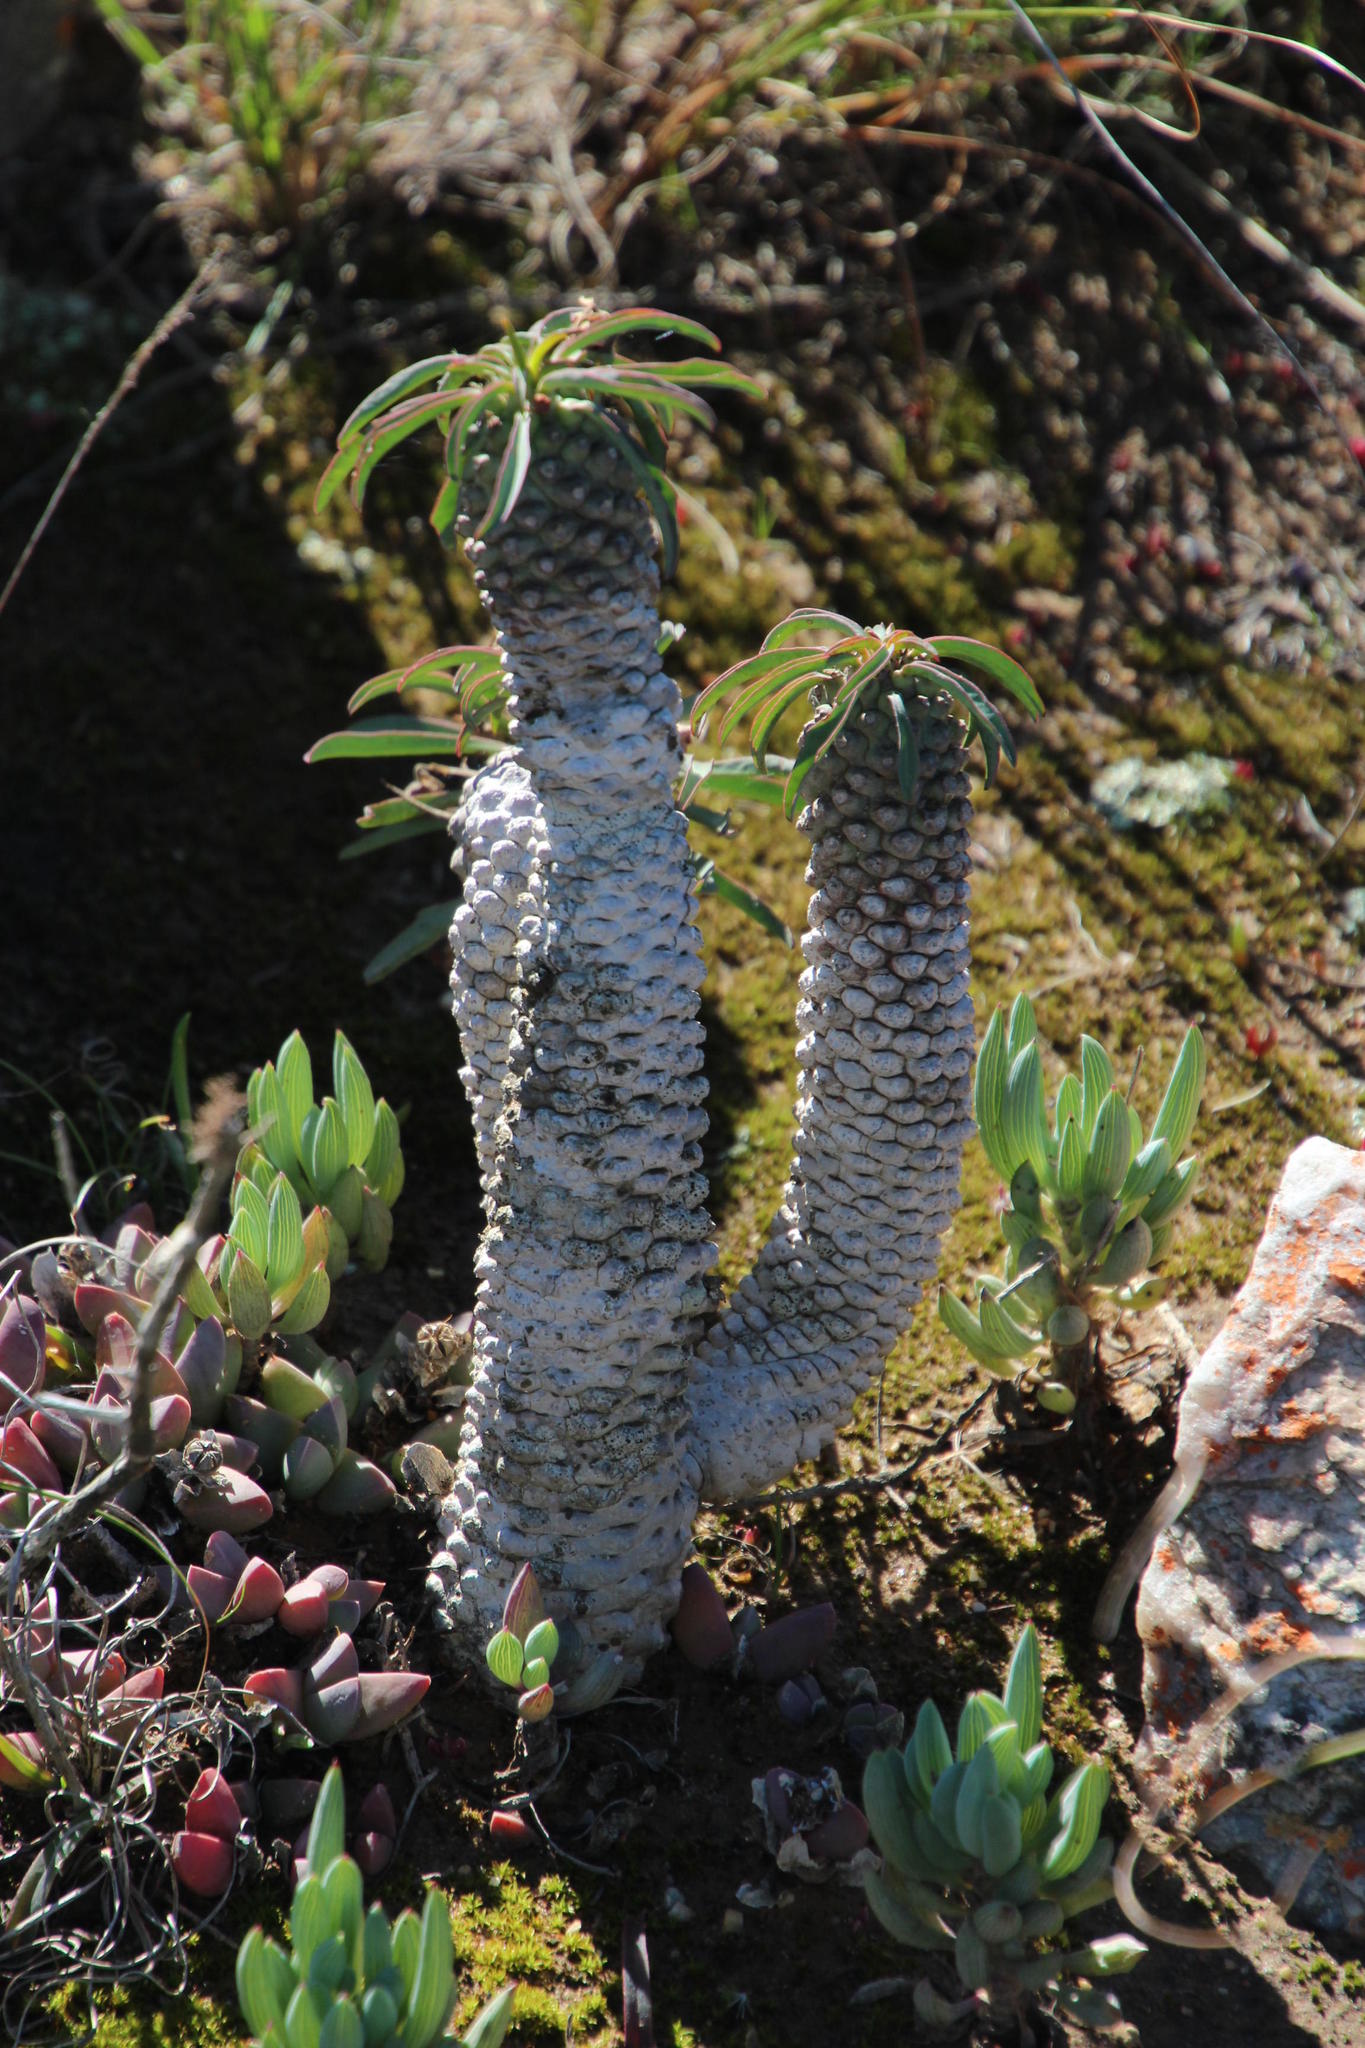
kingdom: Plantae
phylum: Tracheophyta
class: Magnoliopsida
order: Malpighiales
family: Euphorbiaceae
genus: Euphorbia
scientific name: Euphorbia clava
